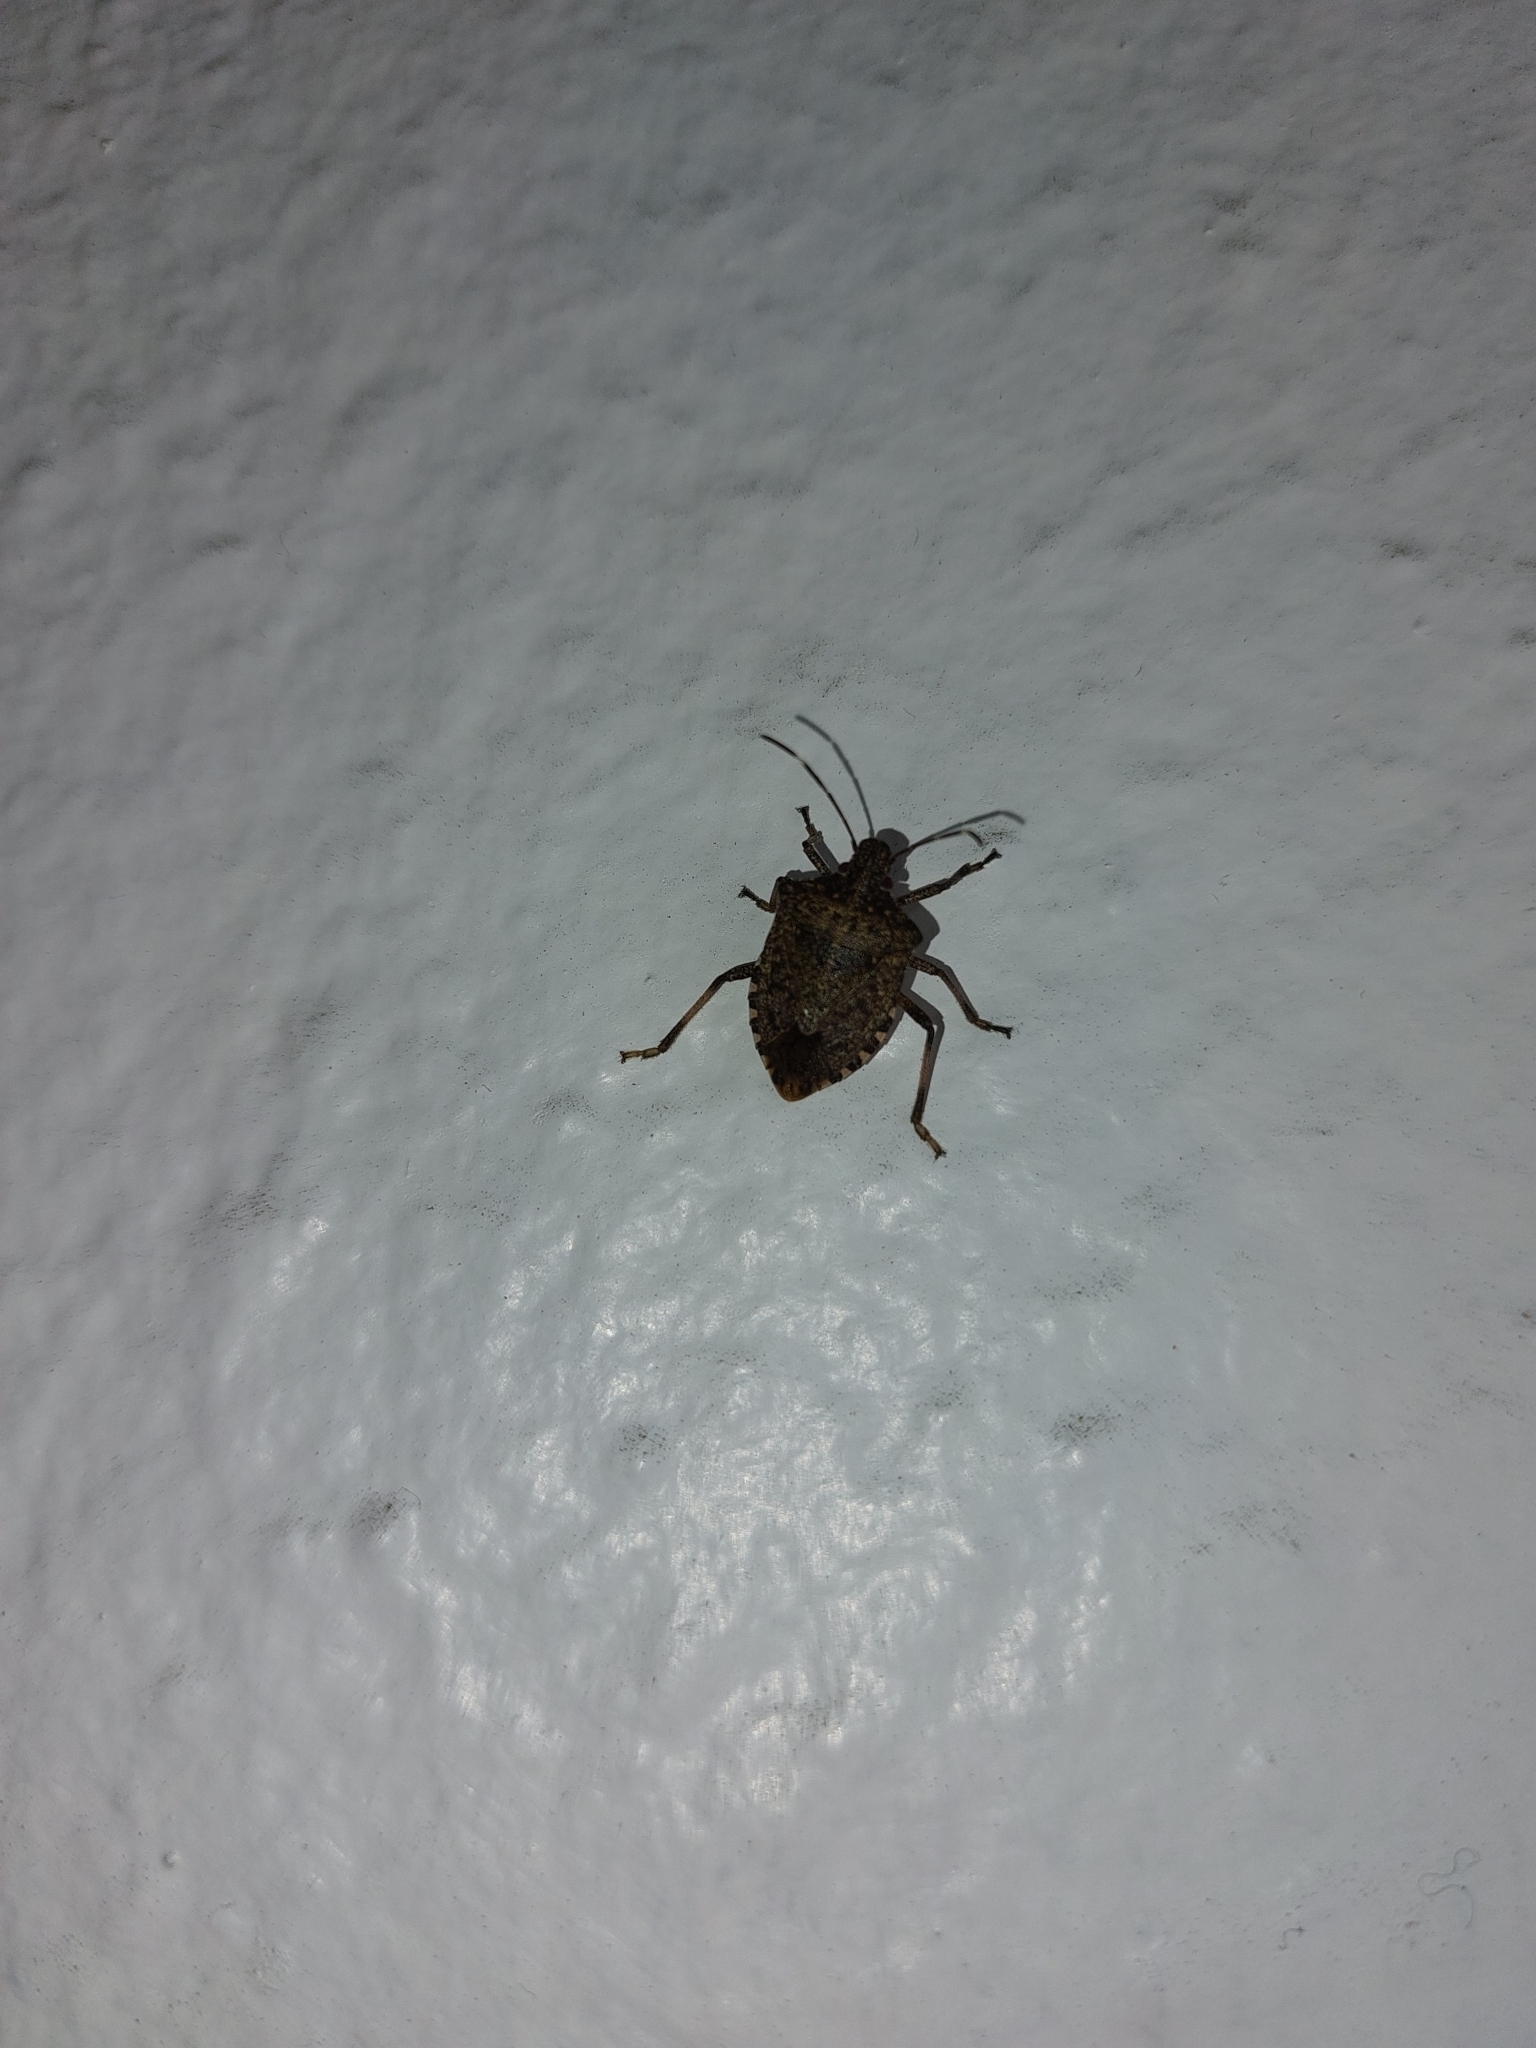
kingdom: Animalia
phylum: Arthropoda
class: Insecta
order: Hemiptera
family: Pentatomidae
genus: Halyomorpha
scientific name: Halyomorpha halys
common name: Brown marmorated stink bug
